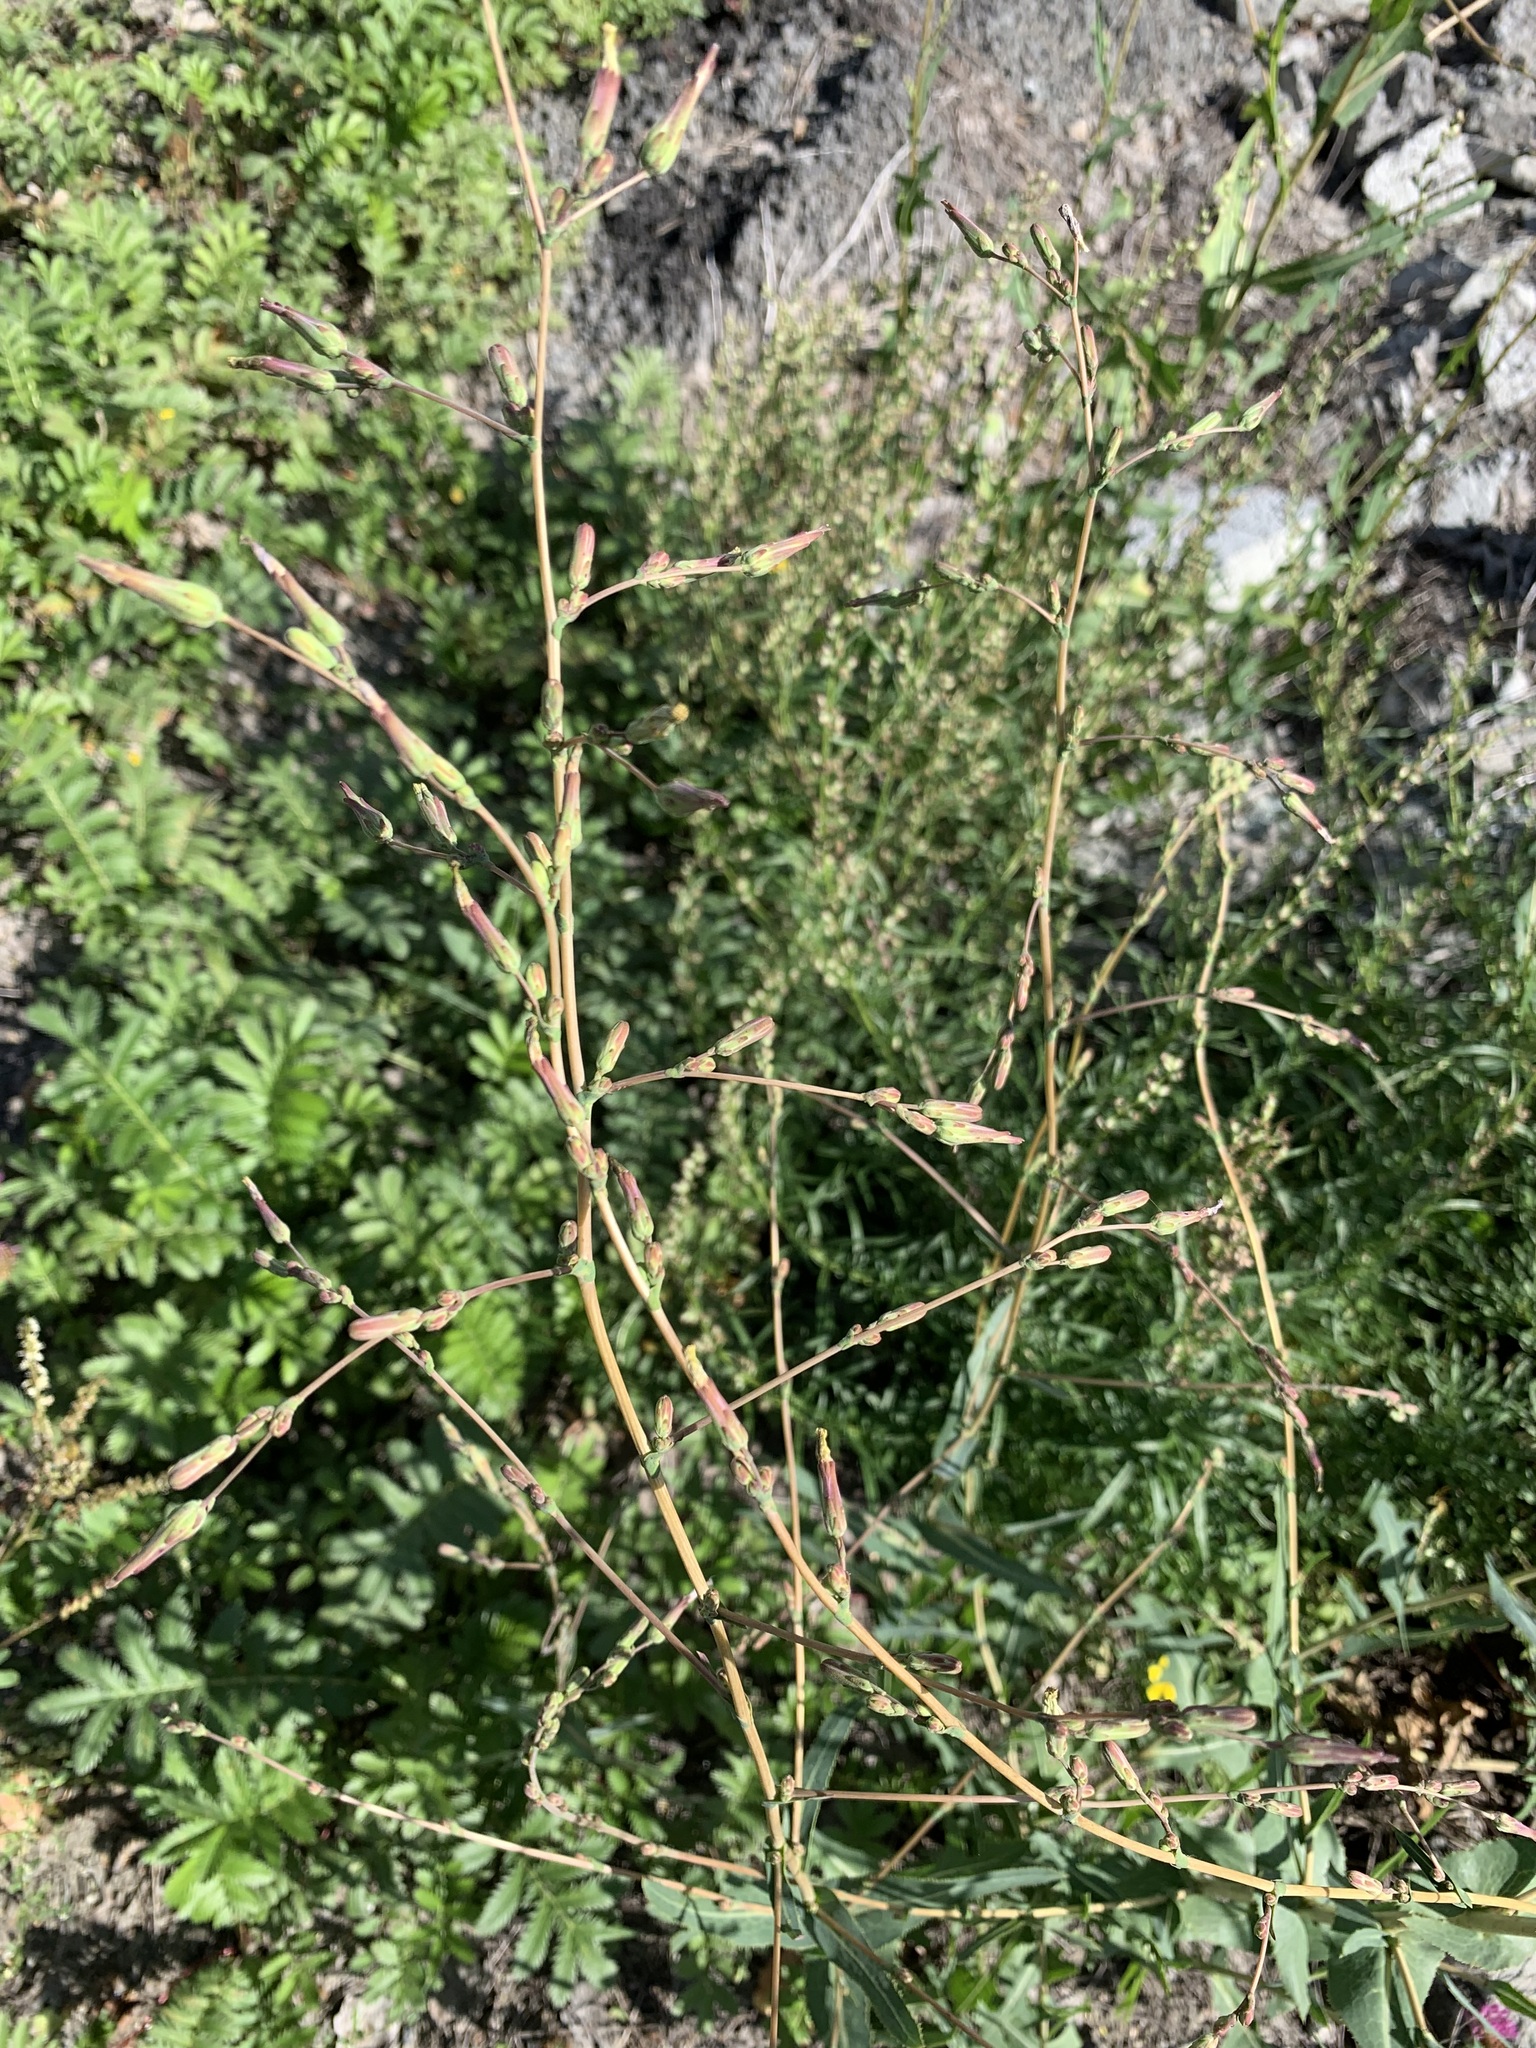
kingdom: Plantae
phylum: Tracheophyta
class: Magnoliopsida
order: Asterales
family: Asteraceae
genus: Lactuca
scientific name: Lactuca serriola
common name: Prickly lettuce
